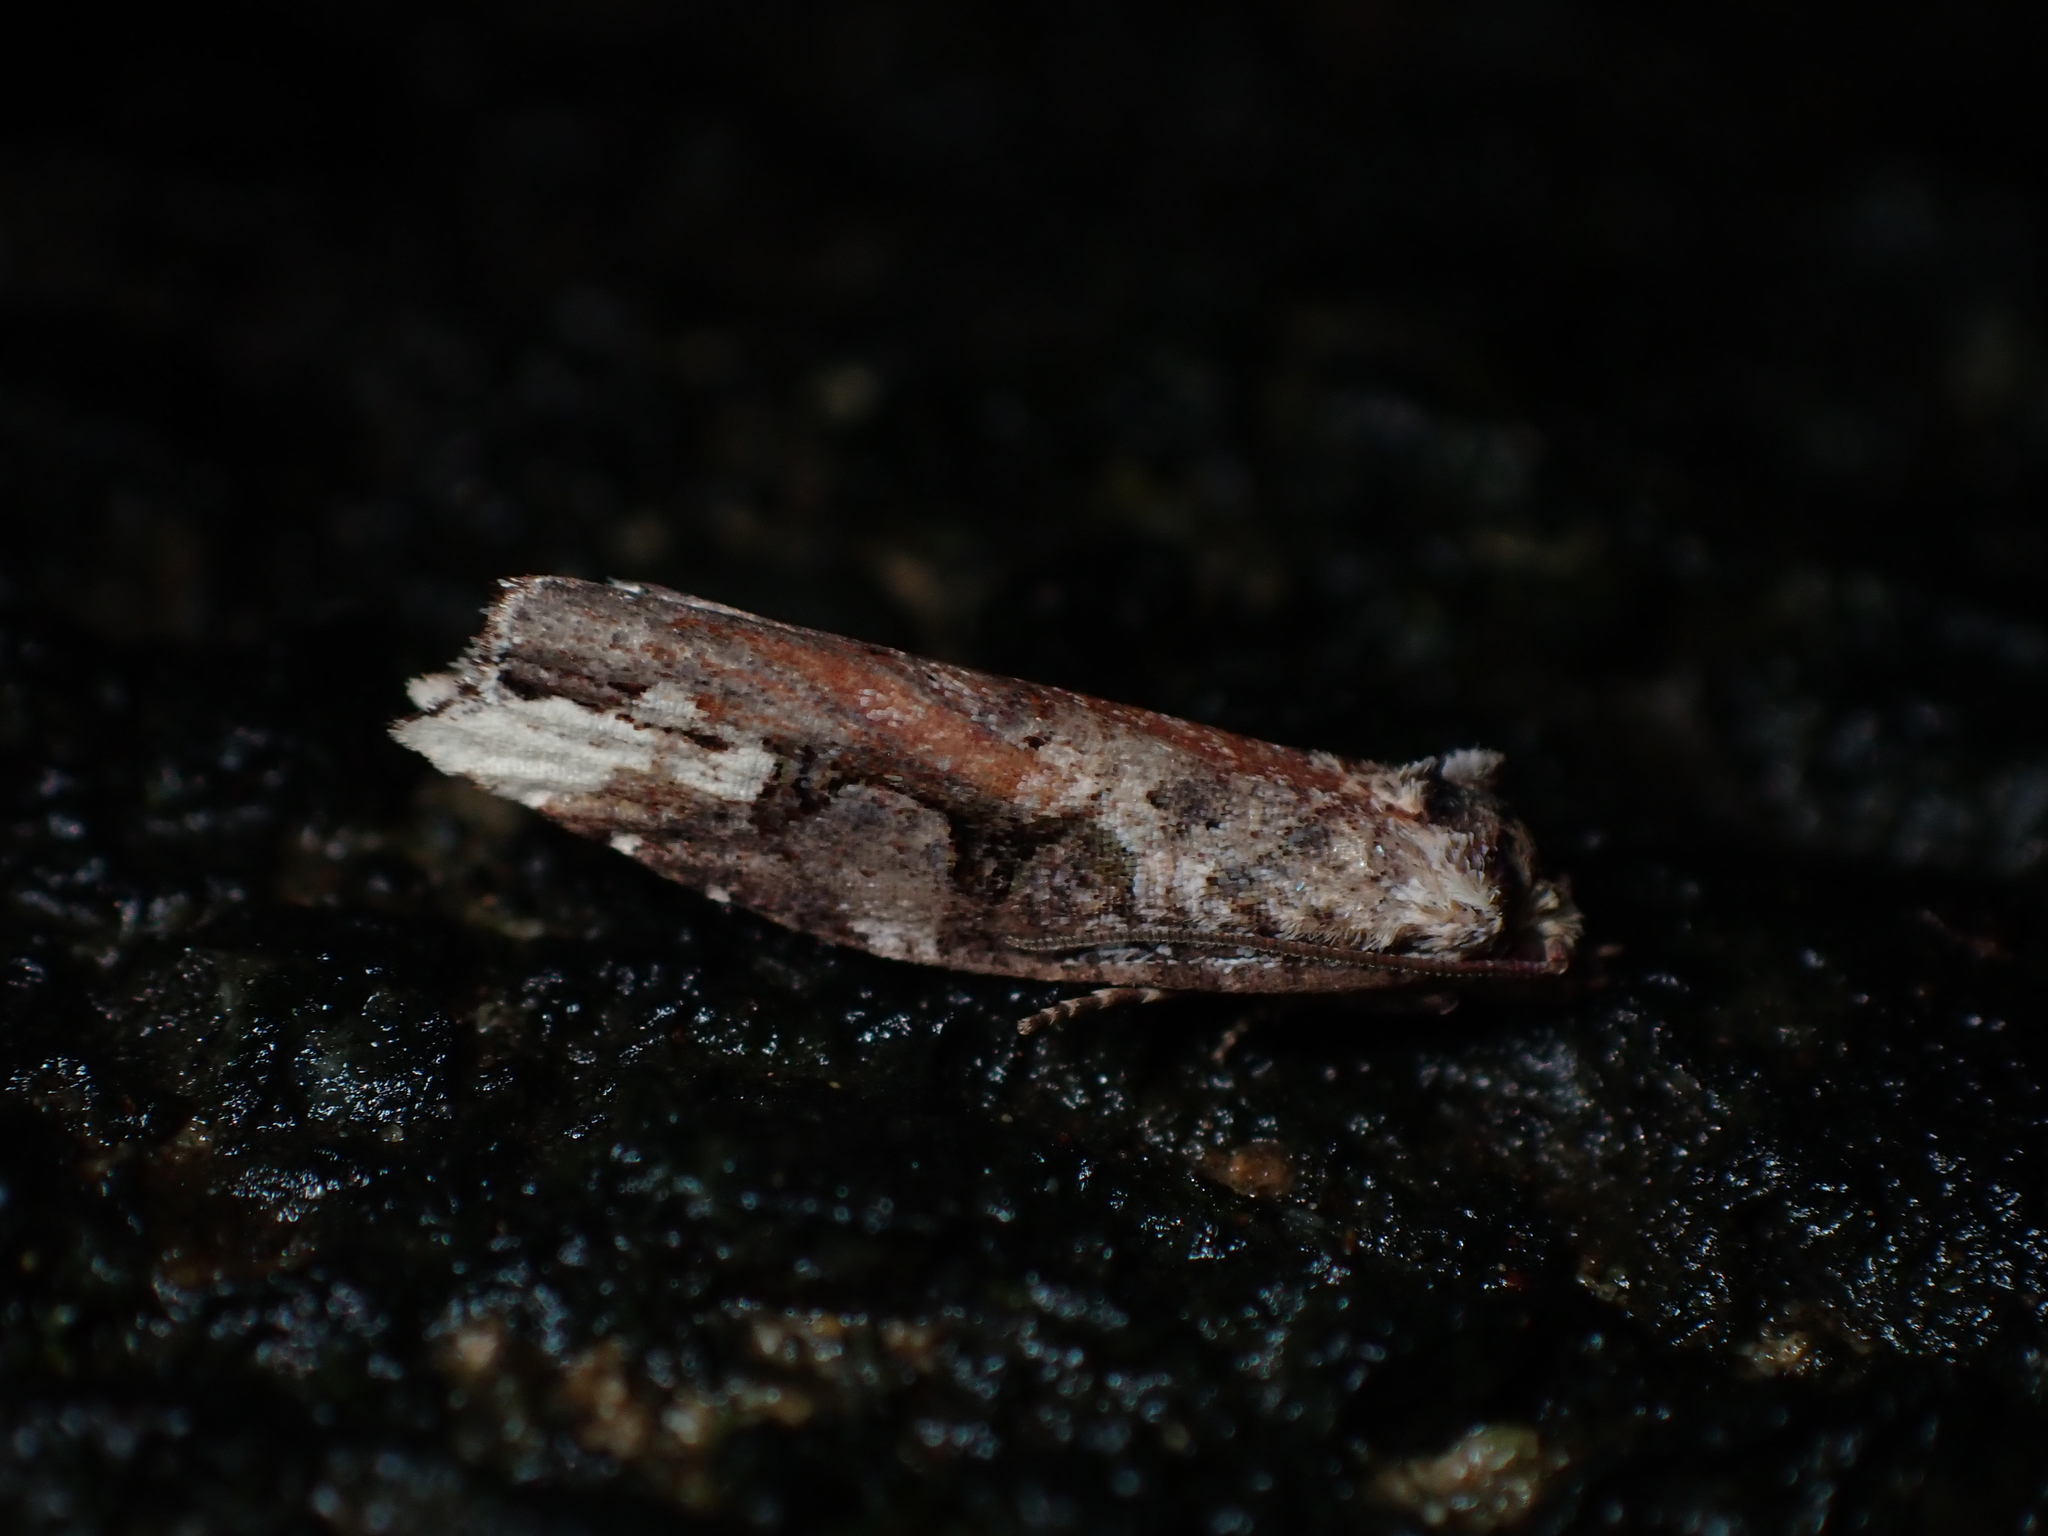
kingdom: Animalia
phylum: Arthropoda
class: Insecta
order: Lepidoptera
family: Tortricidae
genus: Epalxiphora
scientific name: Epalxiphora axenana
